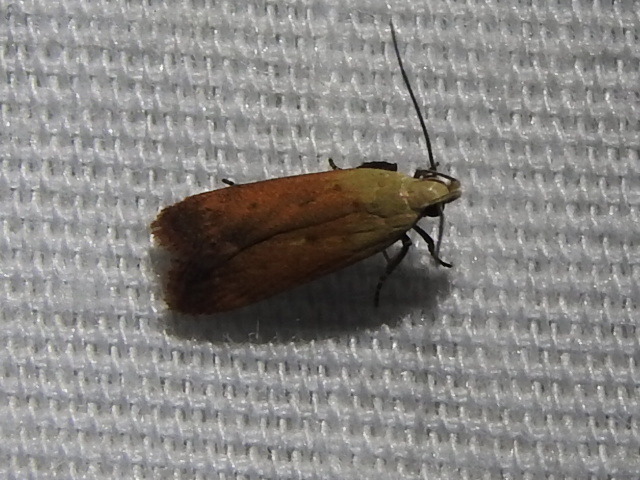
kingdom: Animalia
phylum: Arthropoda
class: Insecta
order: Lepidoptera
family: Gelechiidae
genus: Anacampsis
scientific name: Anacampsis fullonella
